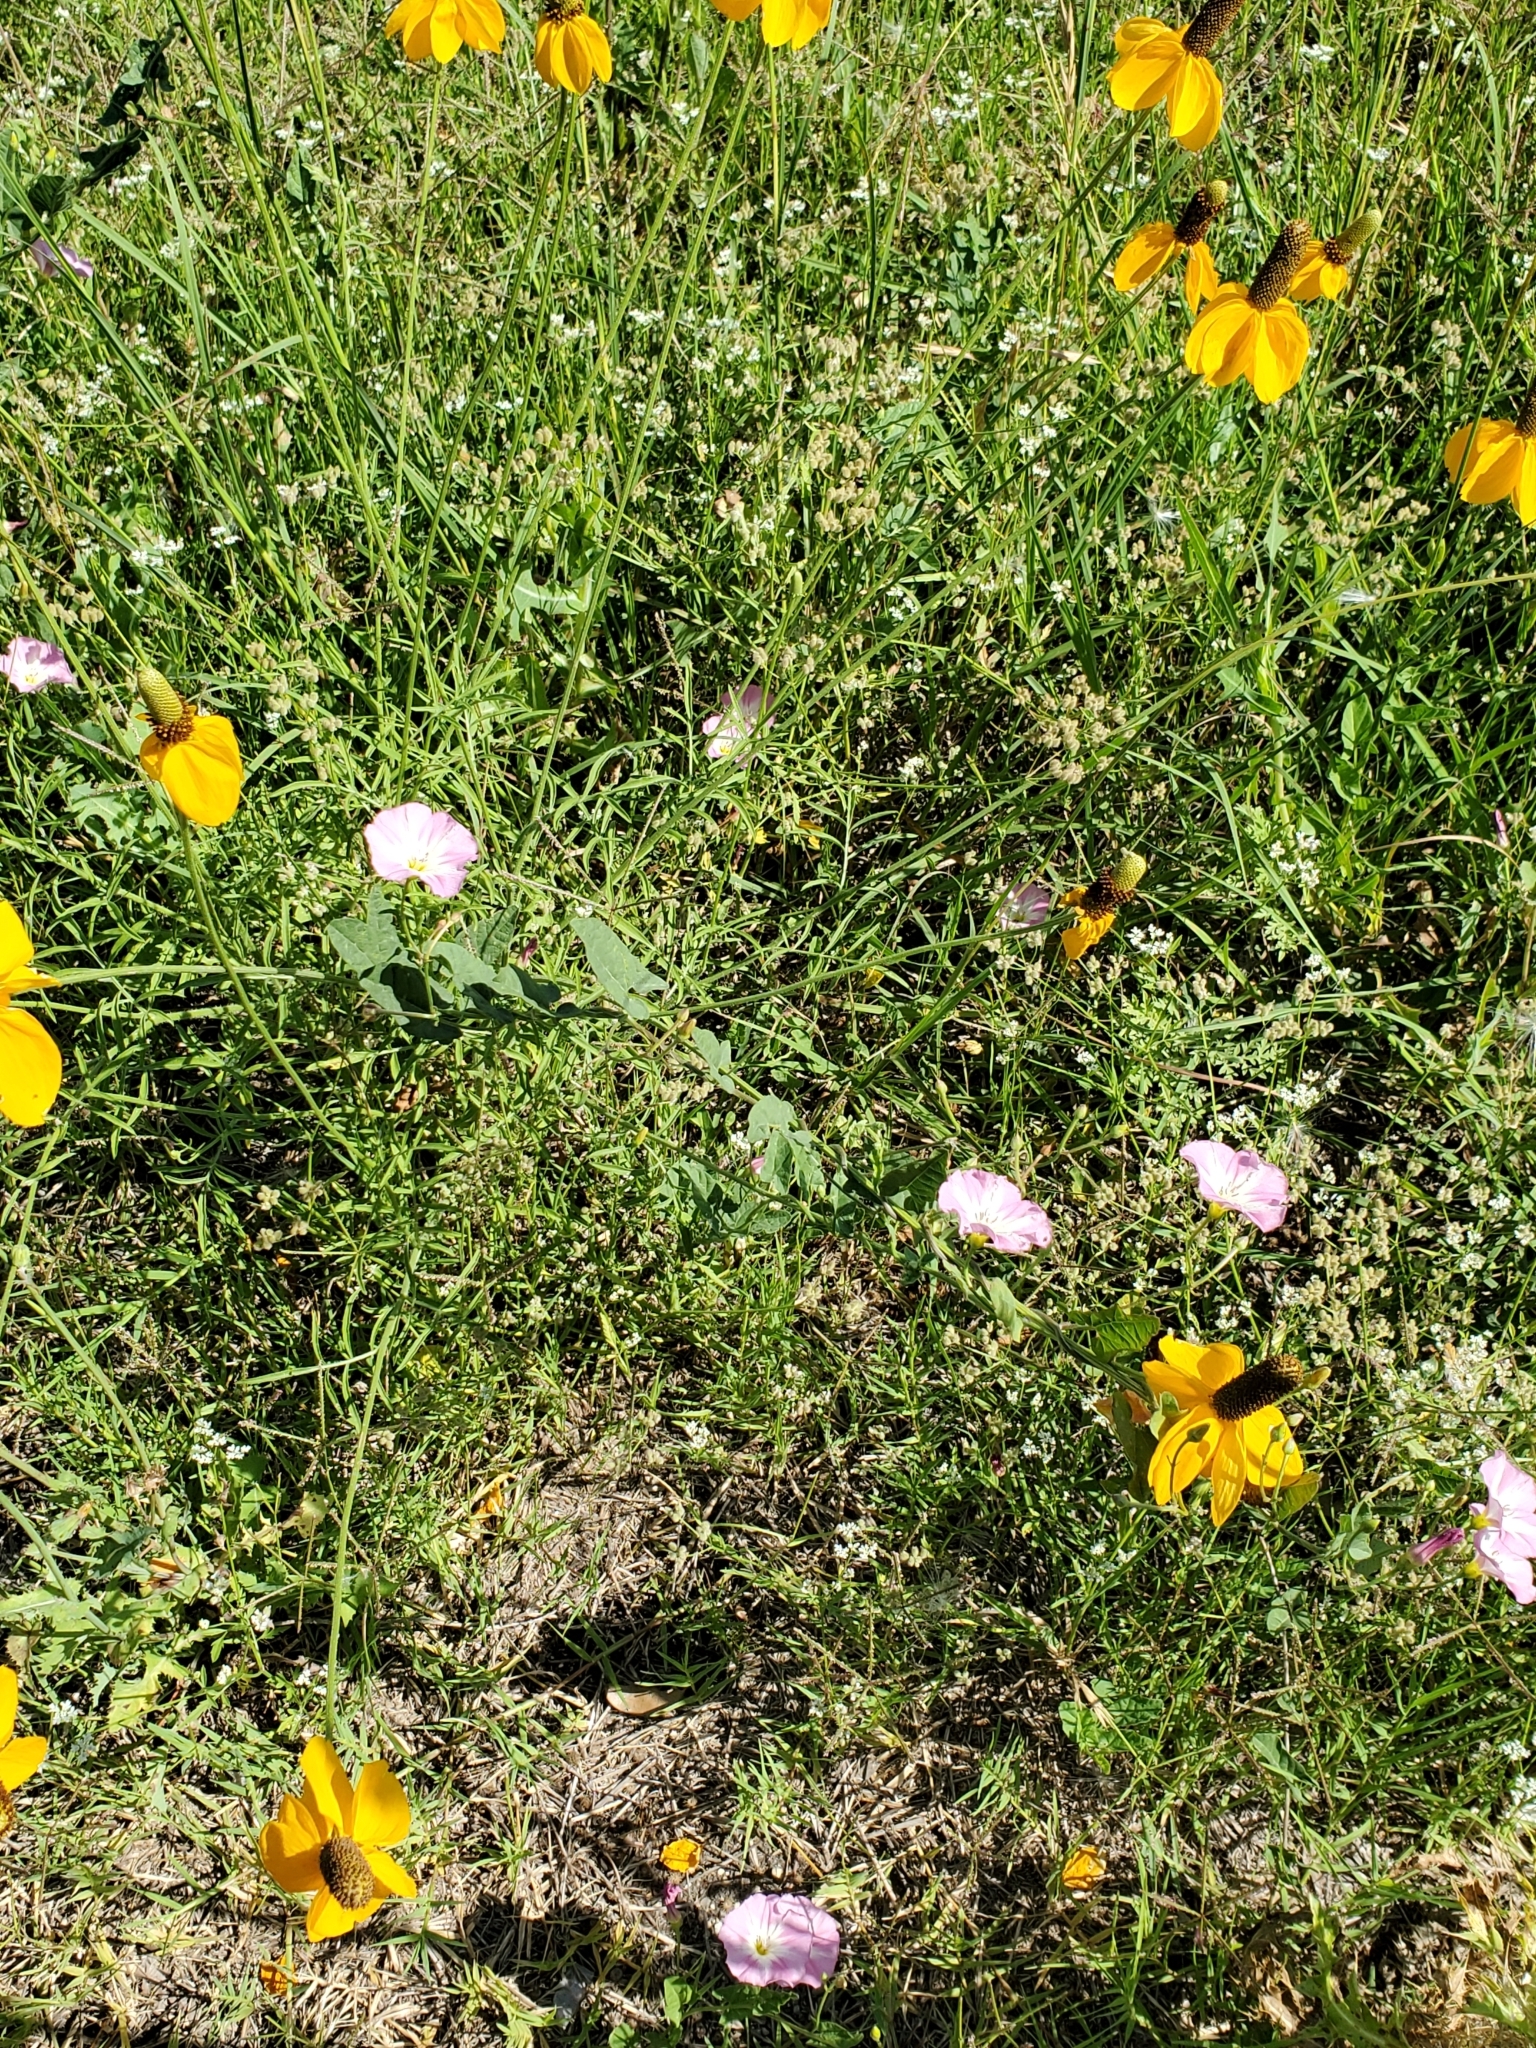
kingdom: Plantae
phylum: Tracheophyta
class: Magnoliopsida
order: Solanales
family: Convolvulaceae
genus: Convolvulus
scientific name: Convolvulus arvensis
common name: Field bindweed
